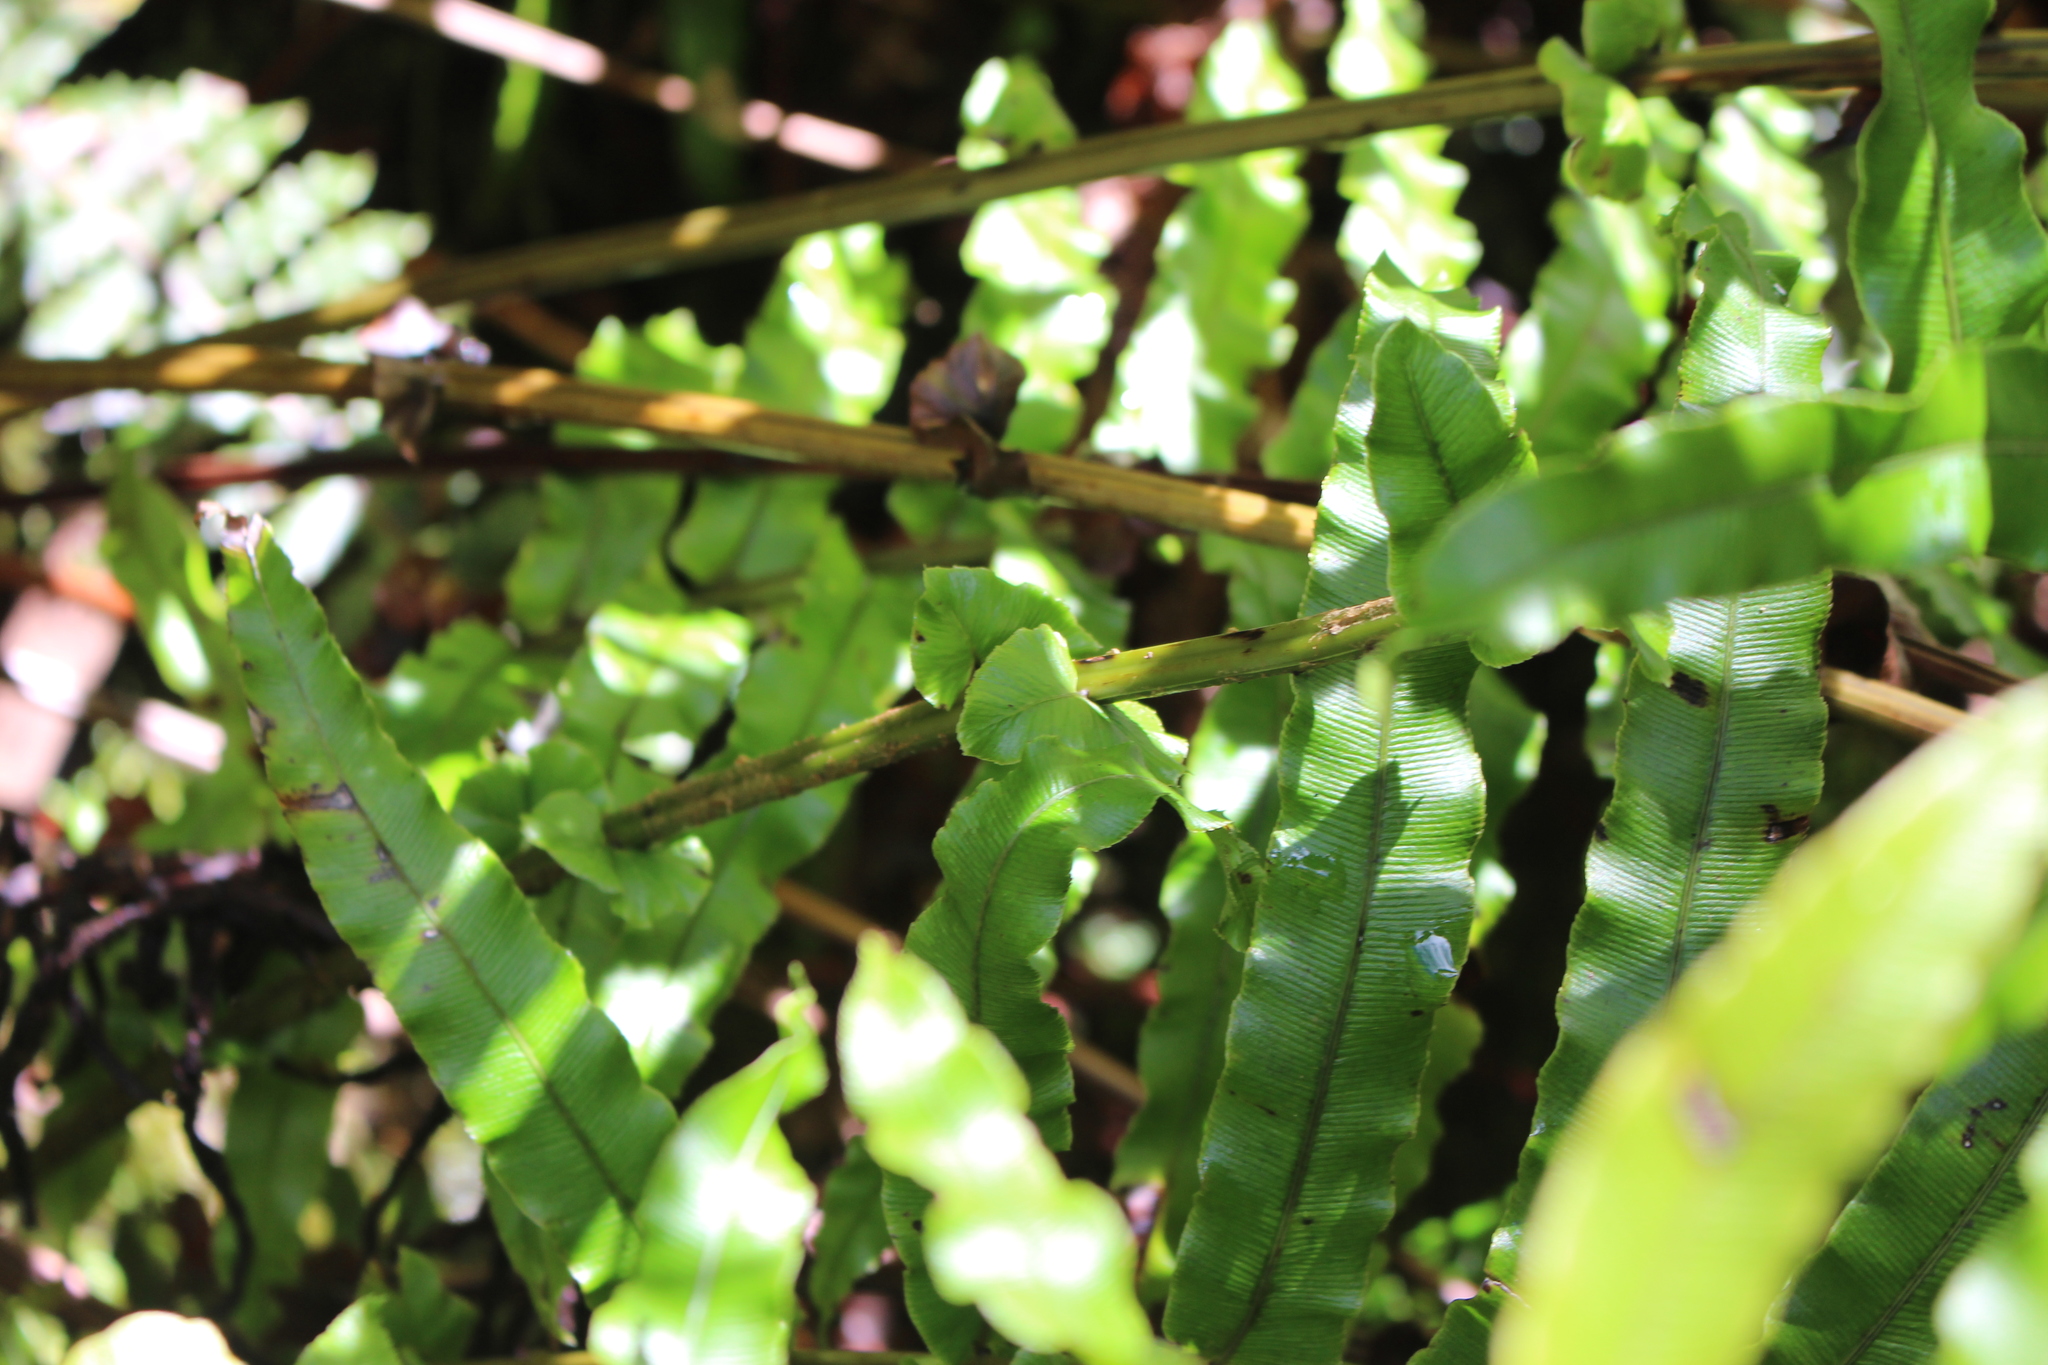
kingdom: Plantae
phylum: Tracheophyta
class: Polypodiopsida
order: Polypodiales
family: Blechnaceae
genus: Parablechnum
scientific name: Parablechnum novae-zelandiae
